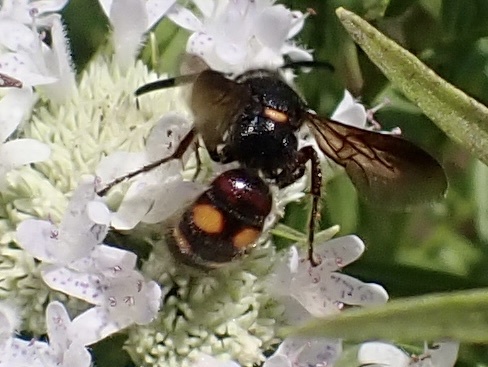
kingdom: Animalia
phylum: Arthropoda
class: Insecta
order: Hymenoptera
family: Scoliidae
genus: Scolia
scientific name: Scolia nobilitata
